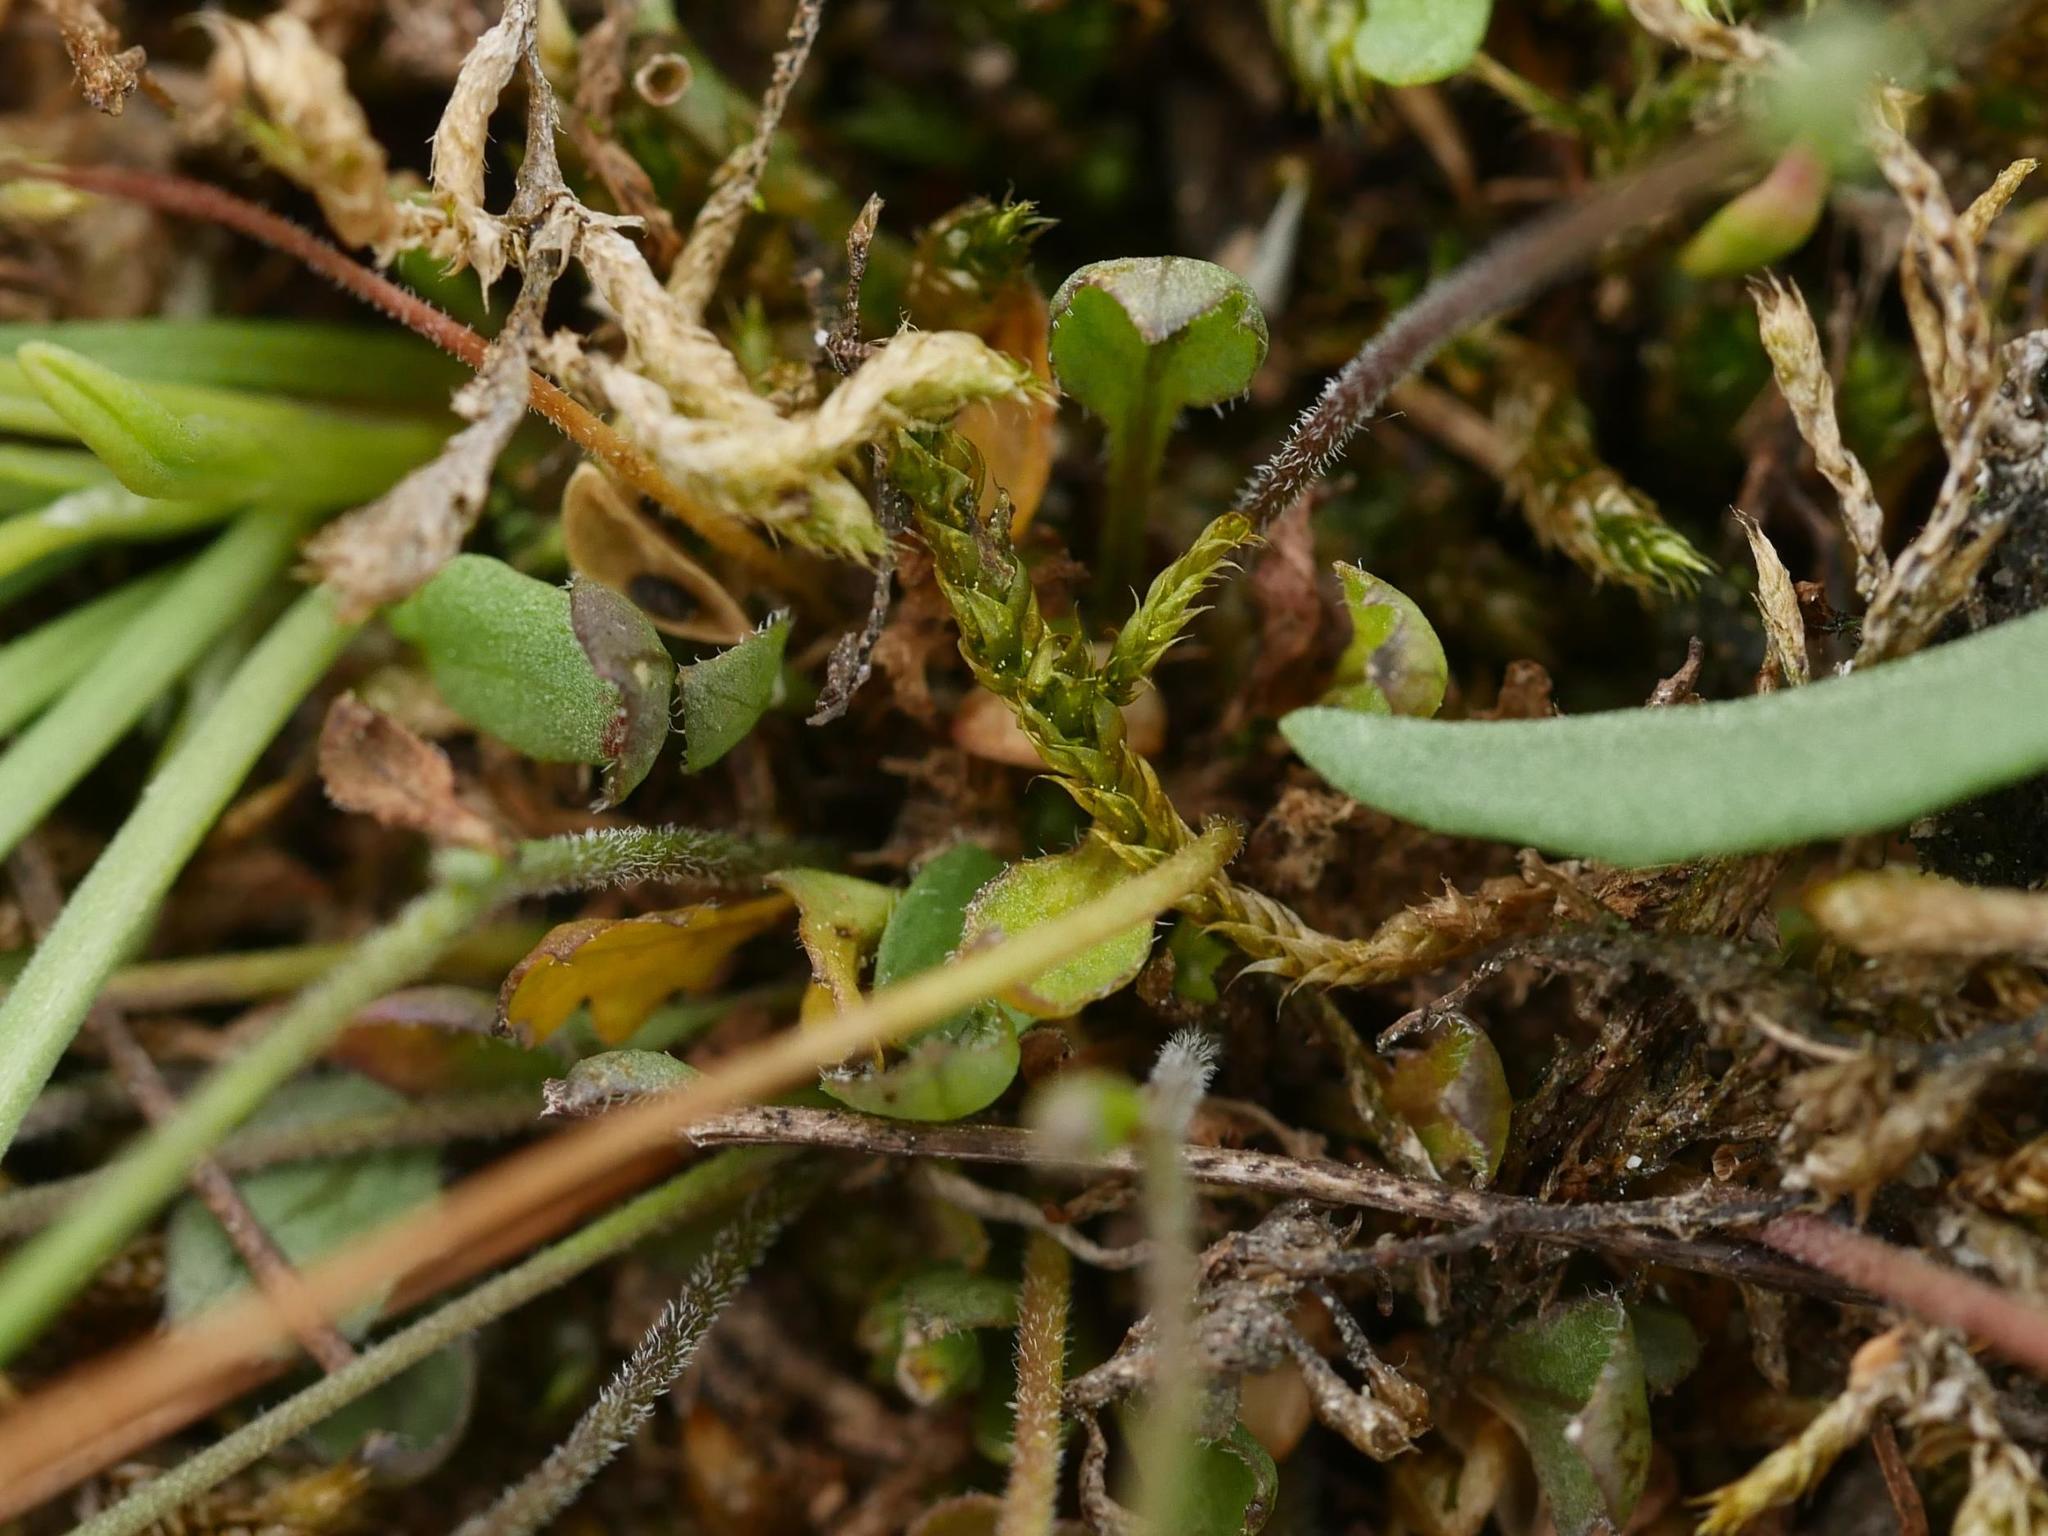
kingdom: Plantae
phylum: Tracheophyta
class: Magnoliopsida
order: Brassicales
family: Brassicaceae
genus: Noccaea
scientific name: Noccaea perfoliata
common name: Perfoliate pennycress
